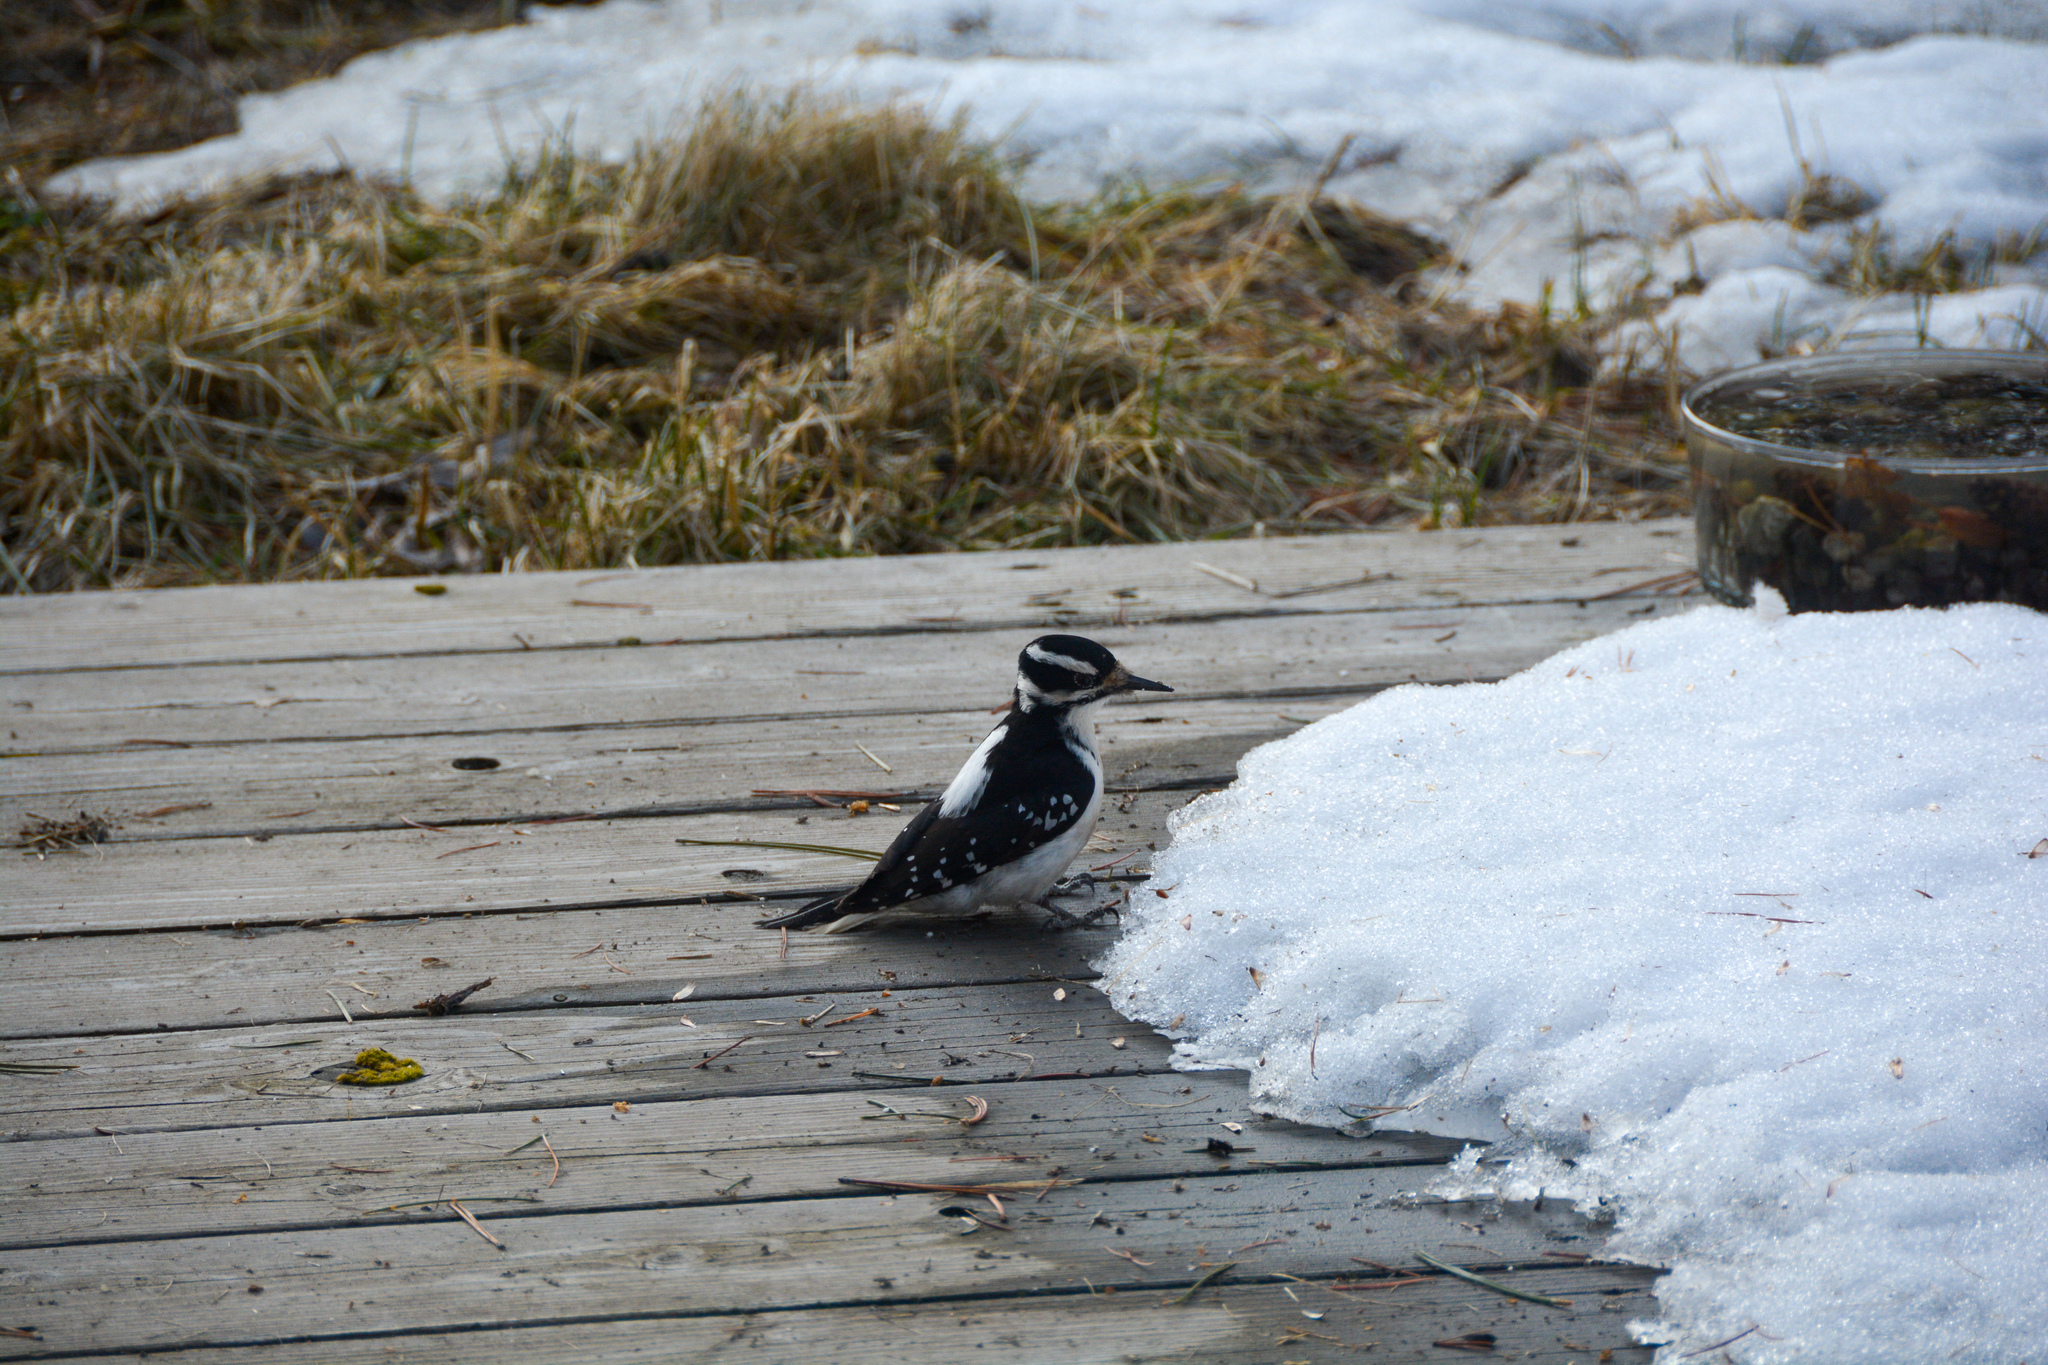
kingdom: Animalia
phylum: Chordata
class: Aves
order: Piciformes
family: Picidae
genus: Leuconotopicus
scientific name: Leuconotopicus villosus
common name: Hairy woodpecker
